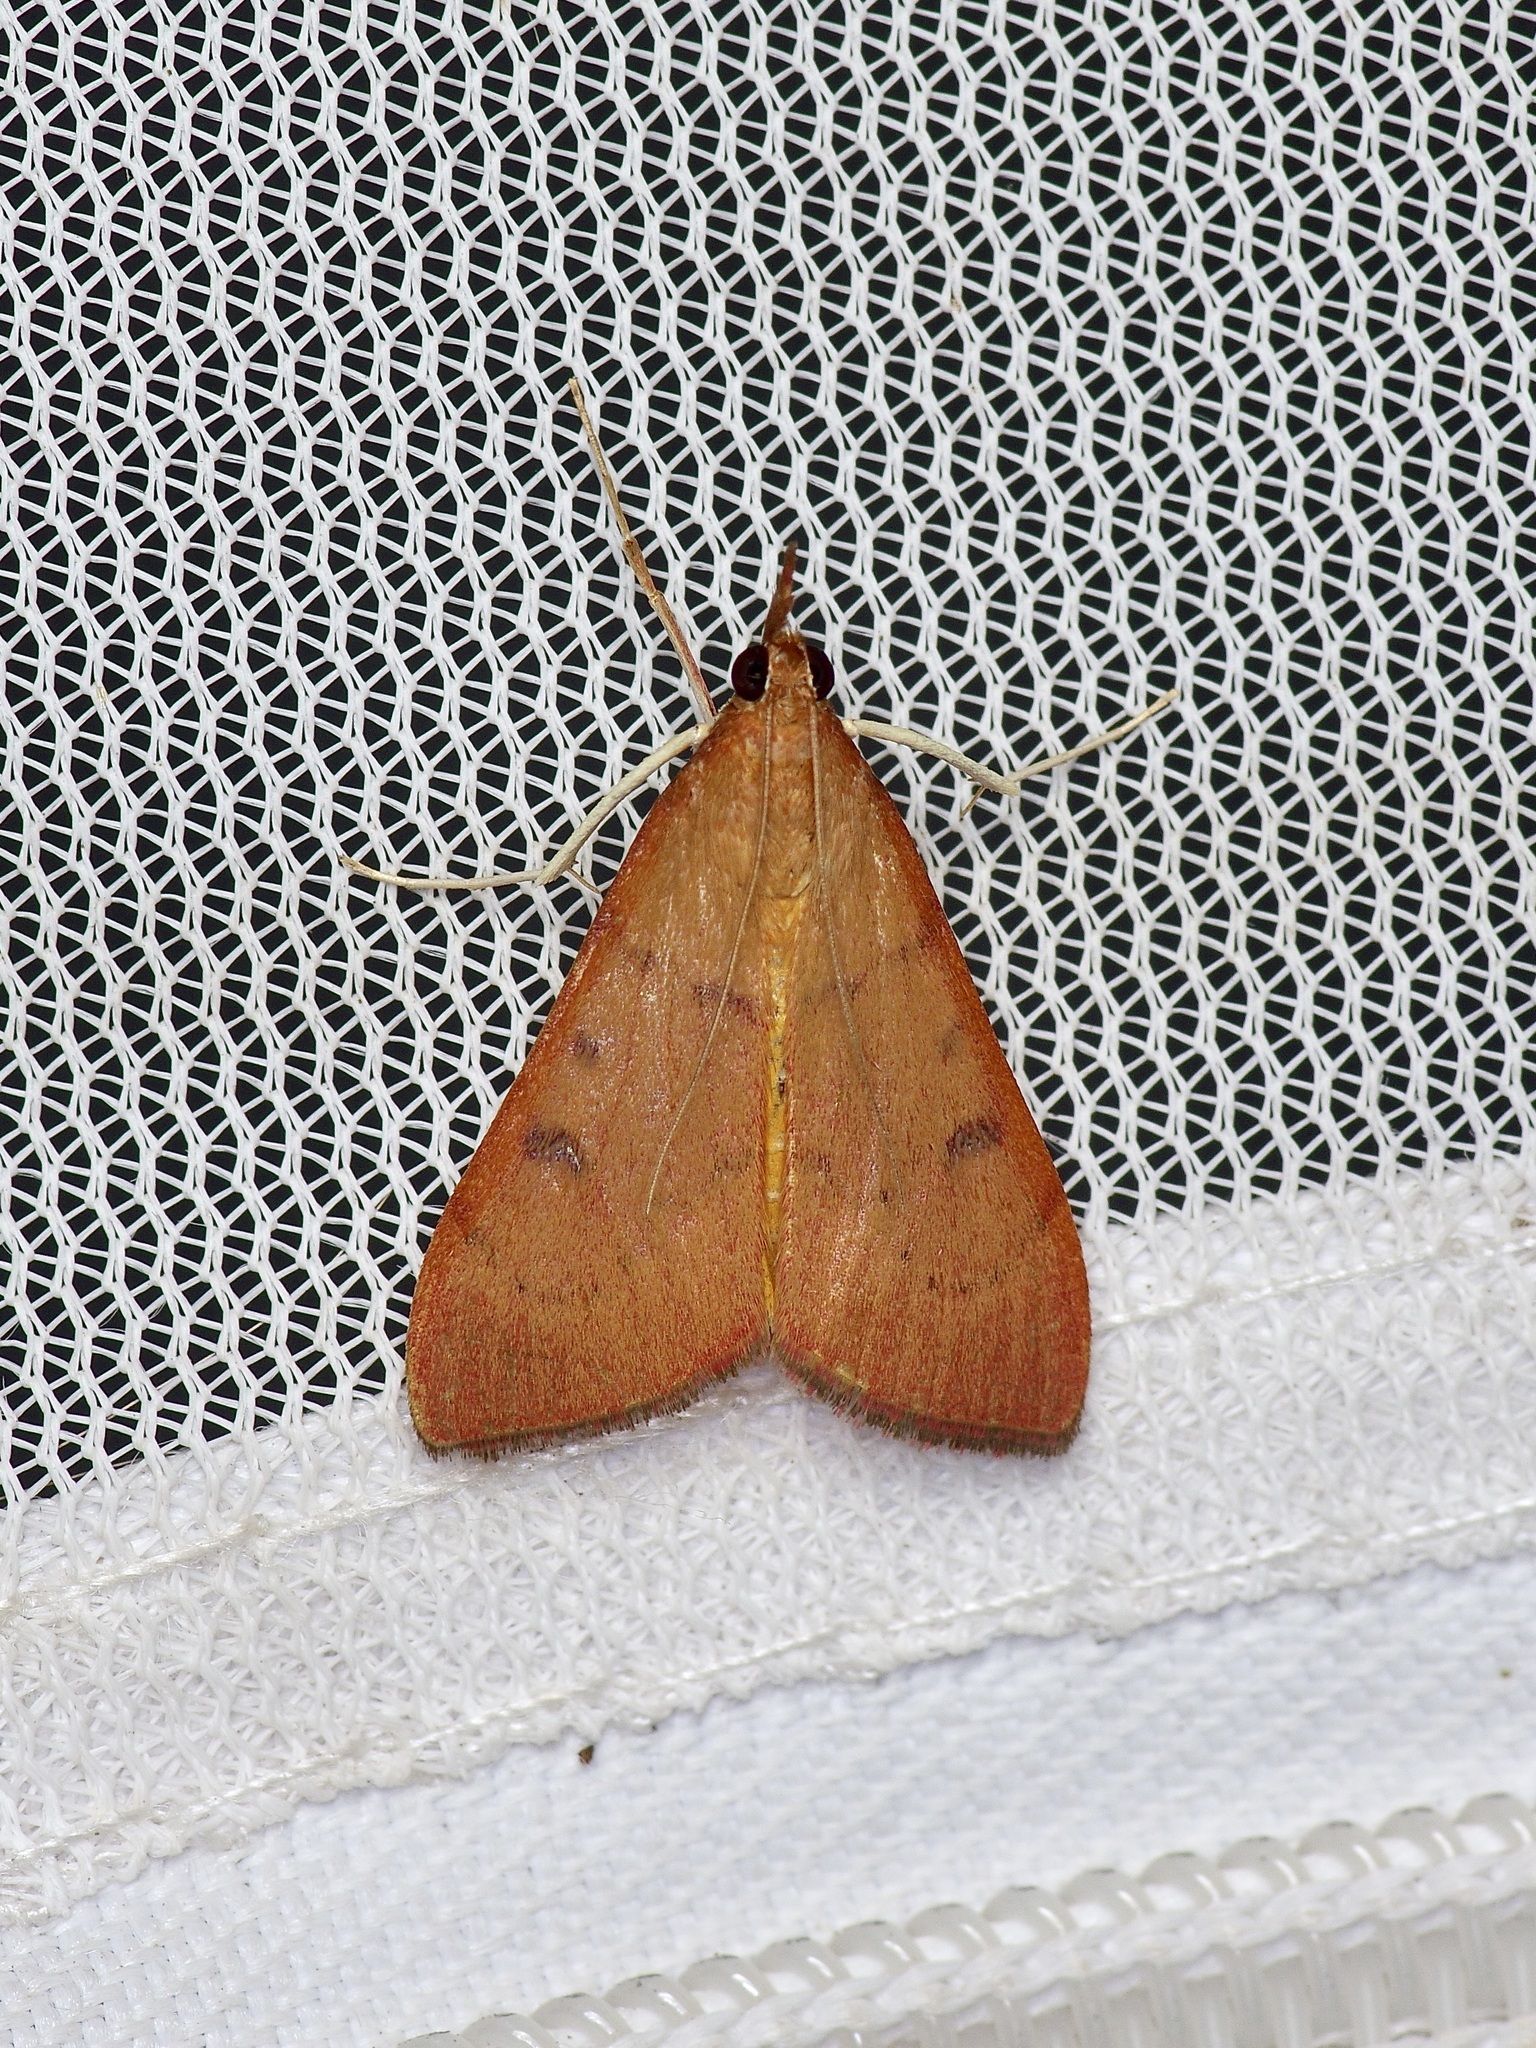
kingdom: Animalia
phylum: Arthropoda
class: Insecta
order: Lepidoptera
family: Crambidae
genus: Uresiphita
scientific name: Uresiphita reversalis
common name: Genista broom moth
